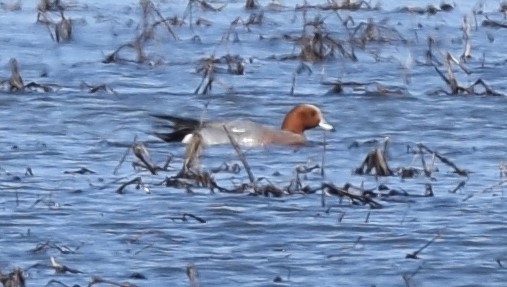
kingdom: Animalia
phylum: Chordata
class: Aves
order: Anseriformes
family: Anatidae
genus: Mareca
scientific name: Mareca penelope
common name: Eurasian wigeon
